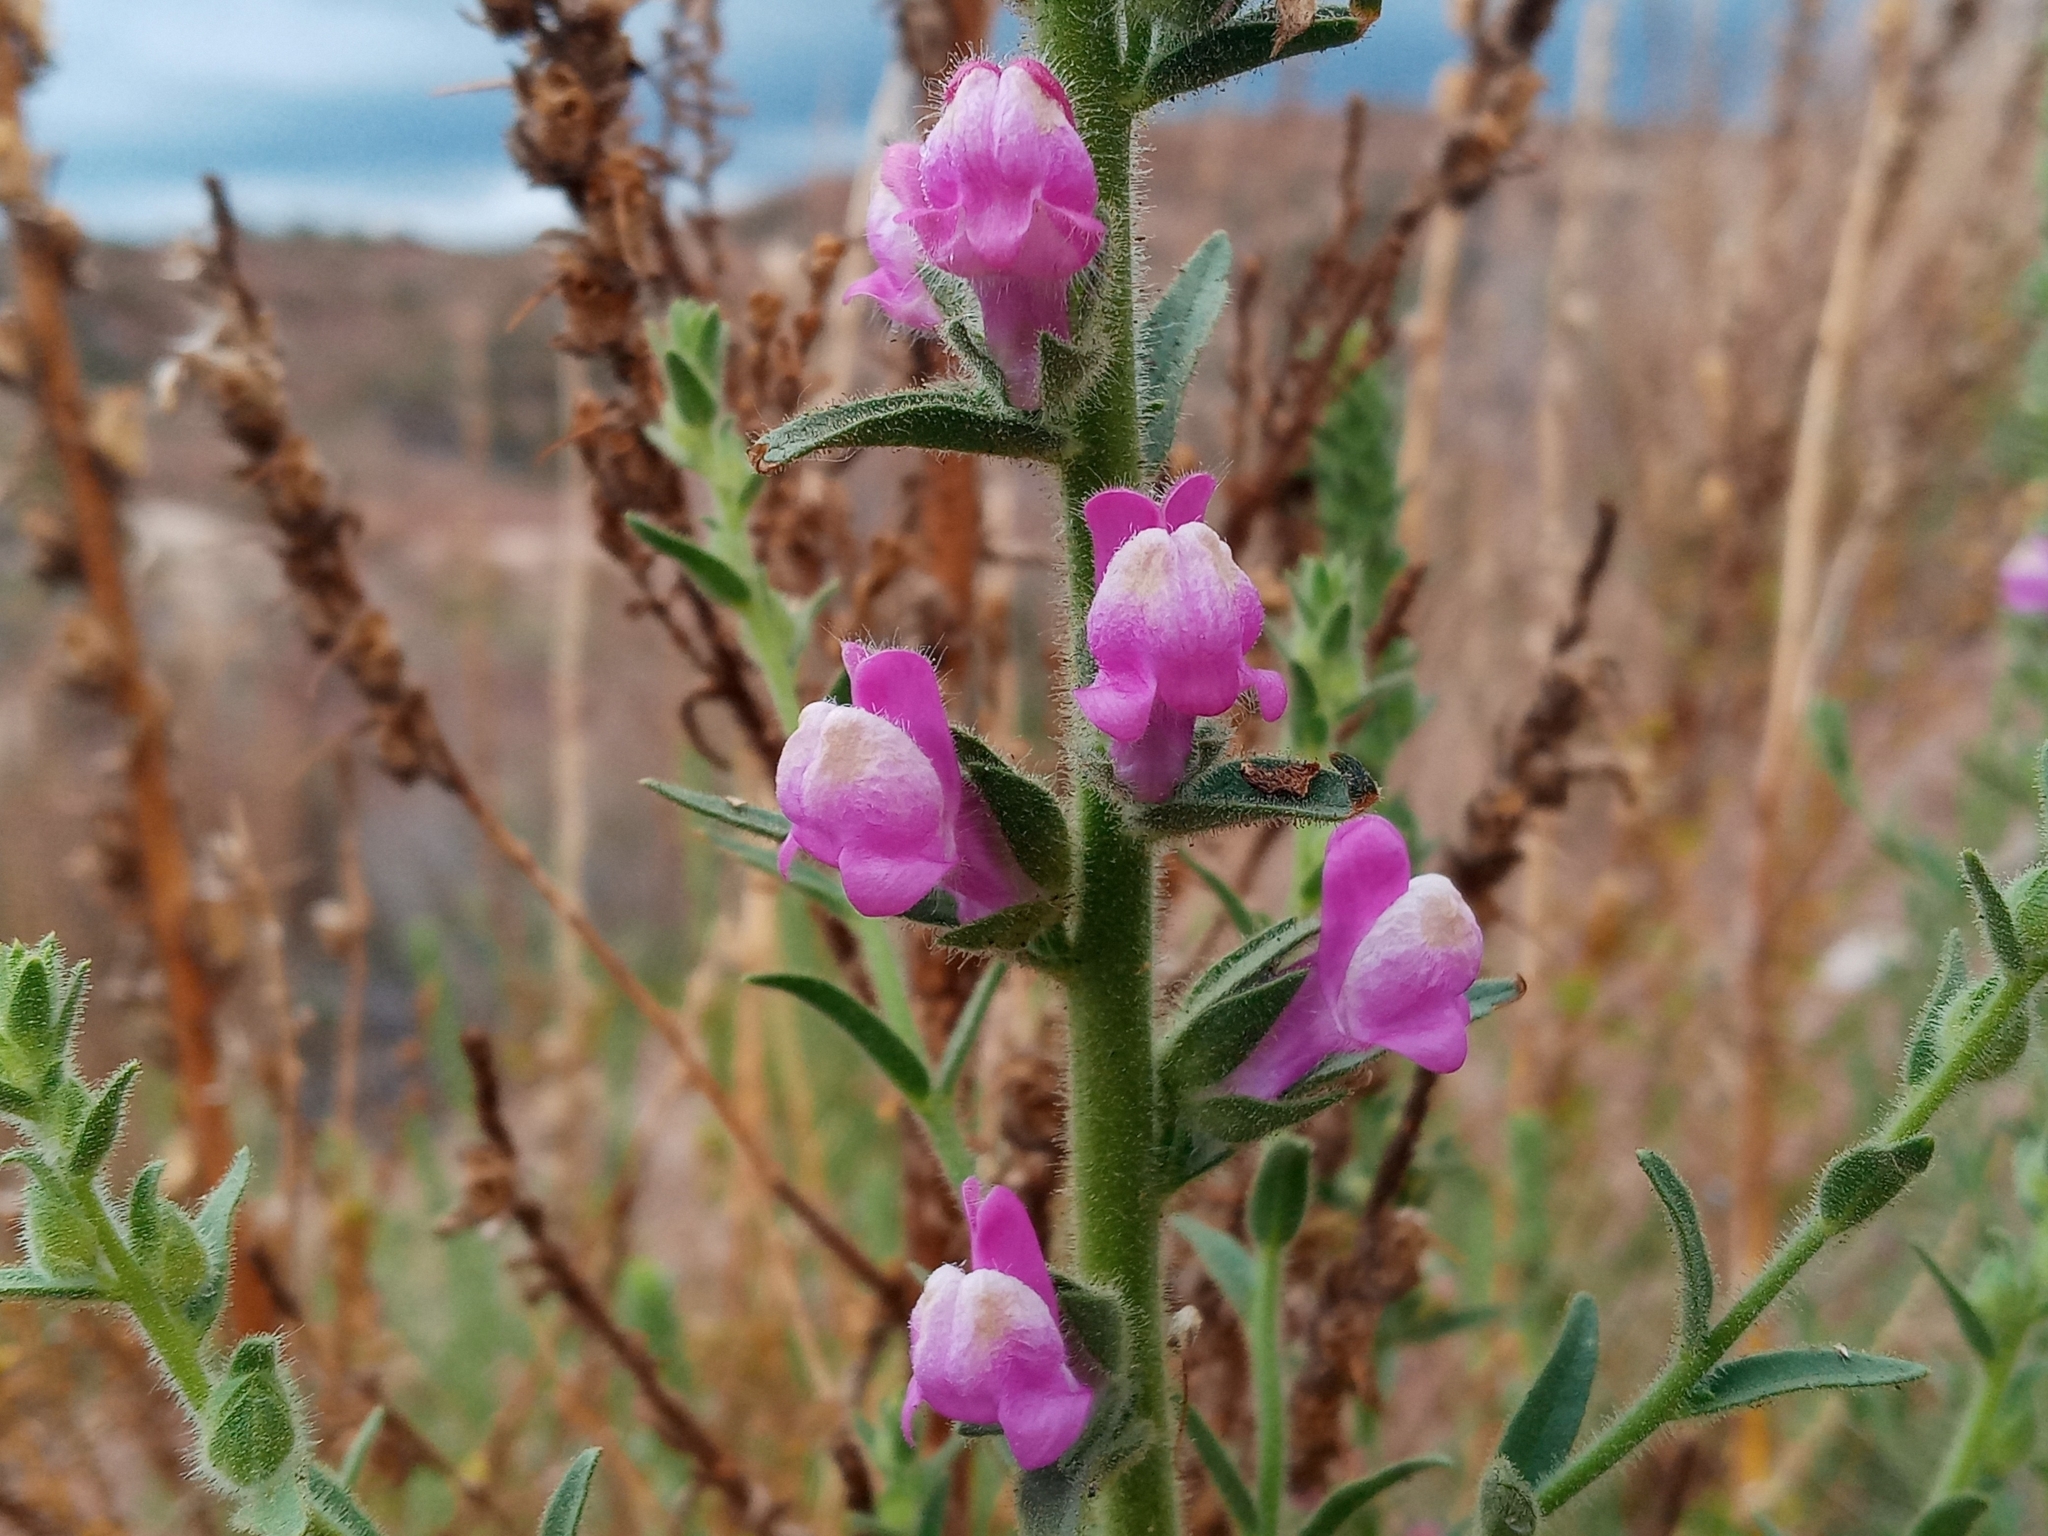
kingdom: Plantae
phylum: Tracheophyta
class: Magnoliopsida
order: Lamiales
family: Plantaginaceae
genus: Sairocarpus
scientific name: Sairocarpus multiflorus
